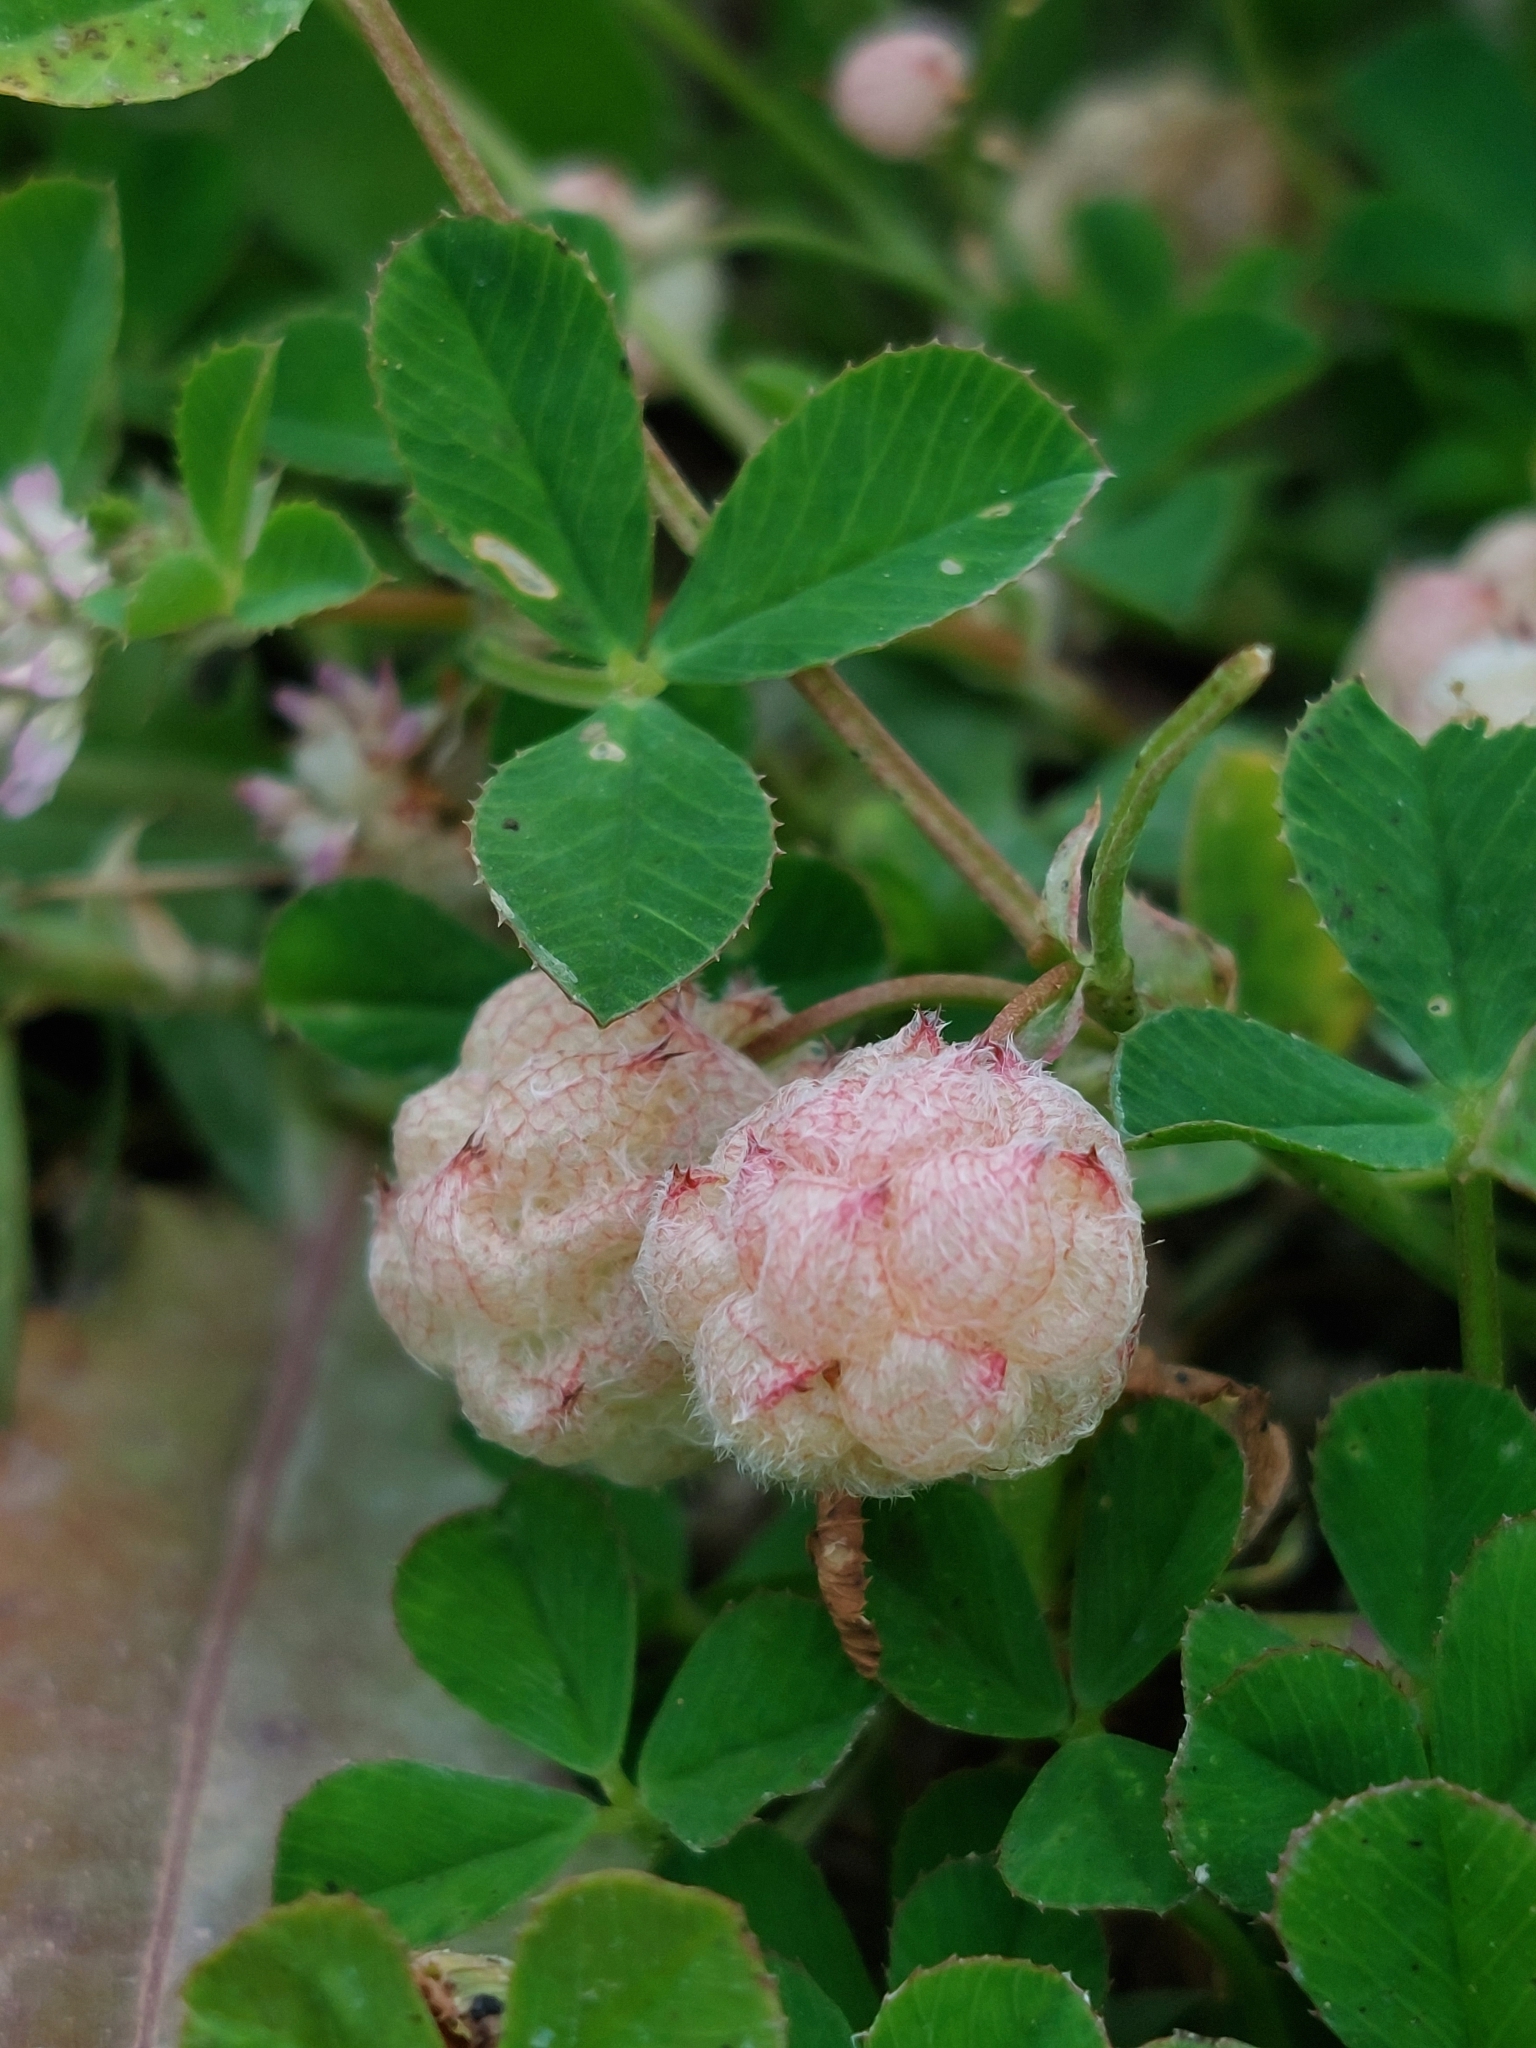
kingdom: Plantae
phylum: Tracheophyta
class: Magnoliopsida
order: Fabales
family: Fabaceae
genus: Trifolium
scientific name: Trifolium tomentosum
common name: Woolly clover
